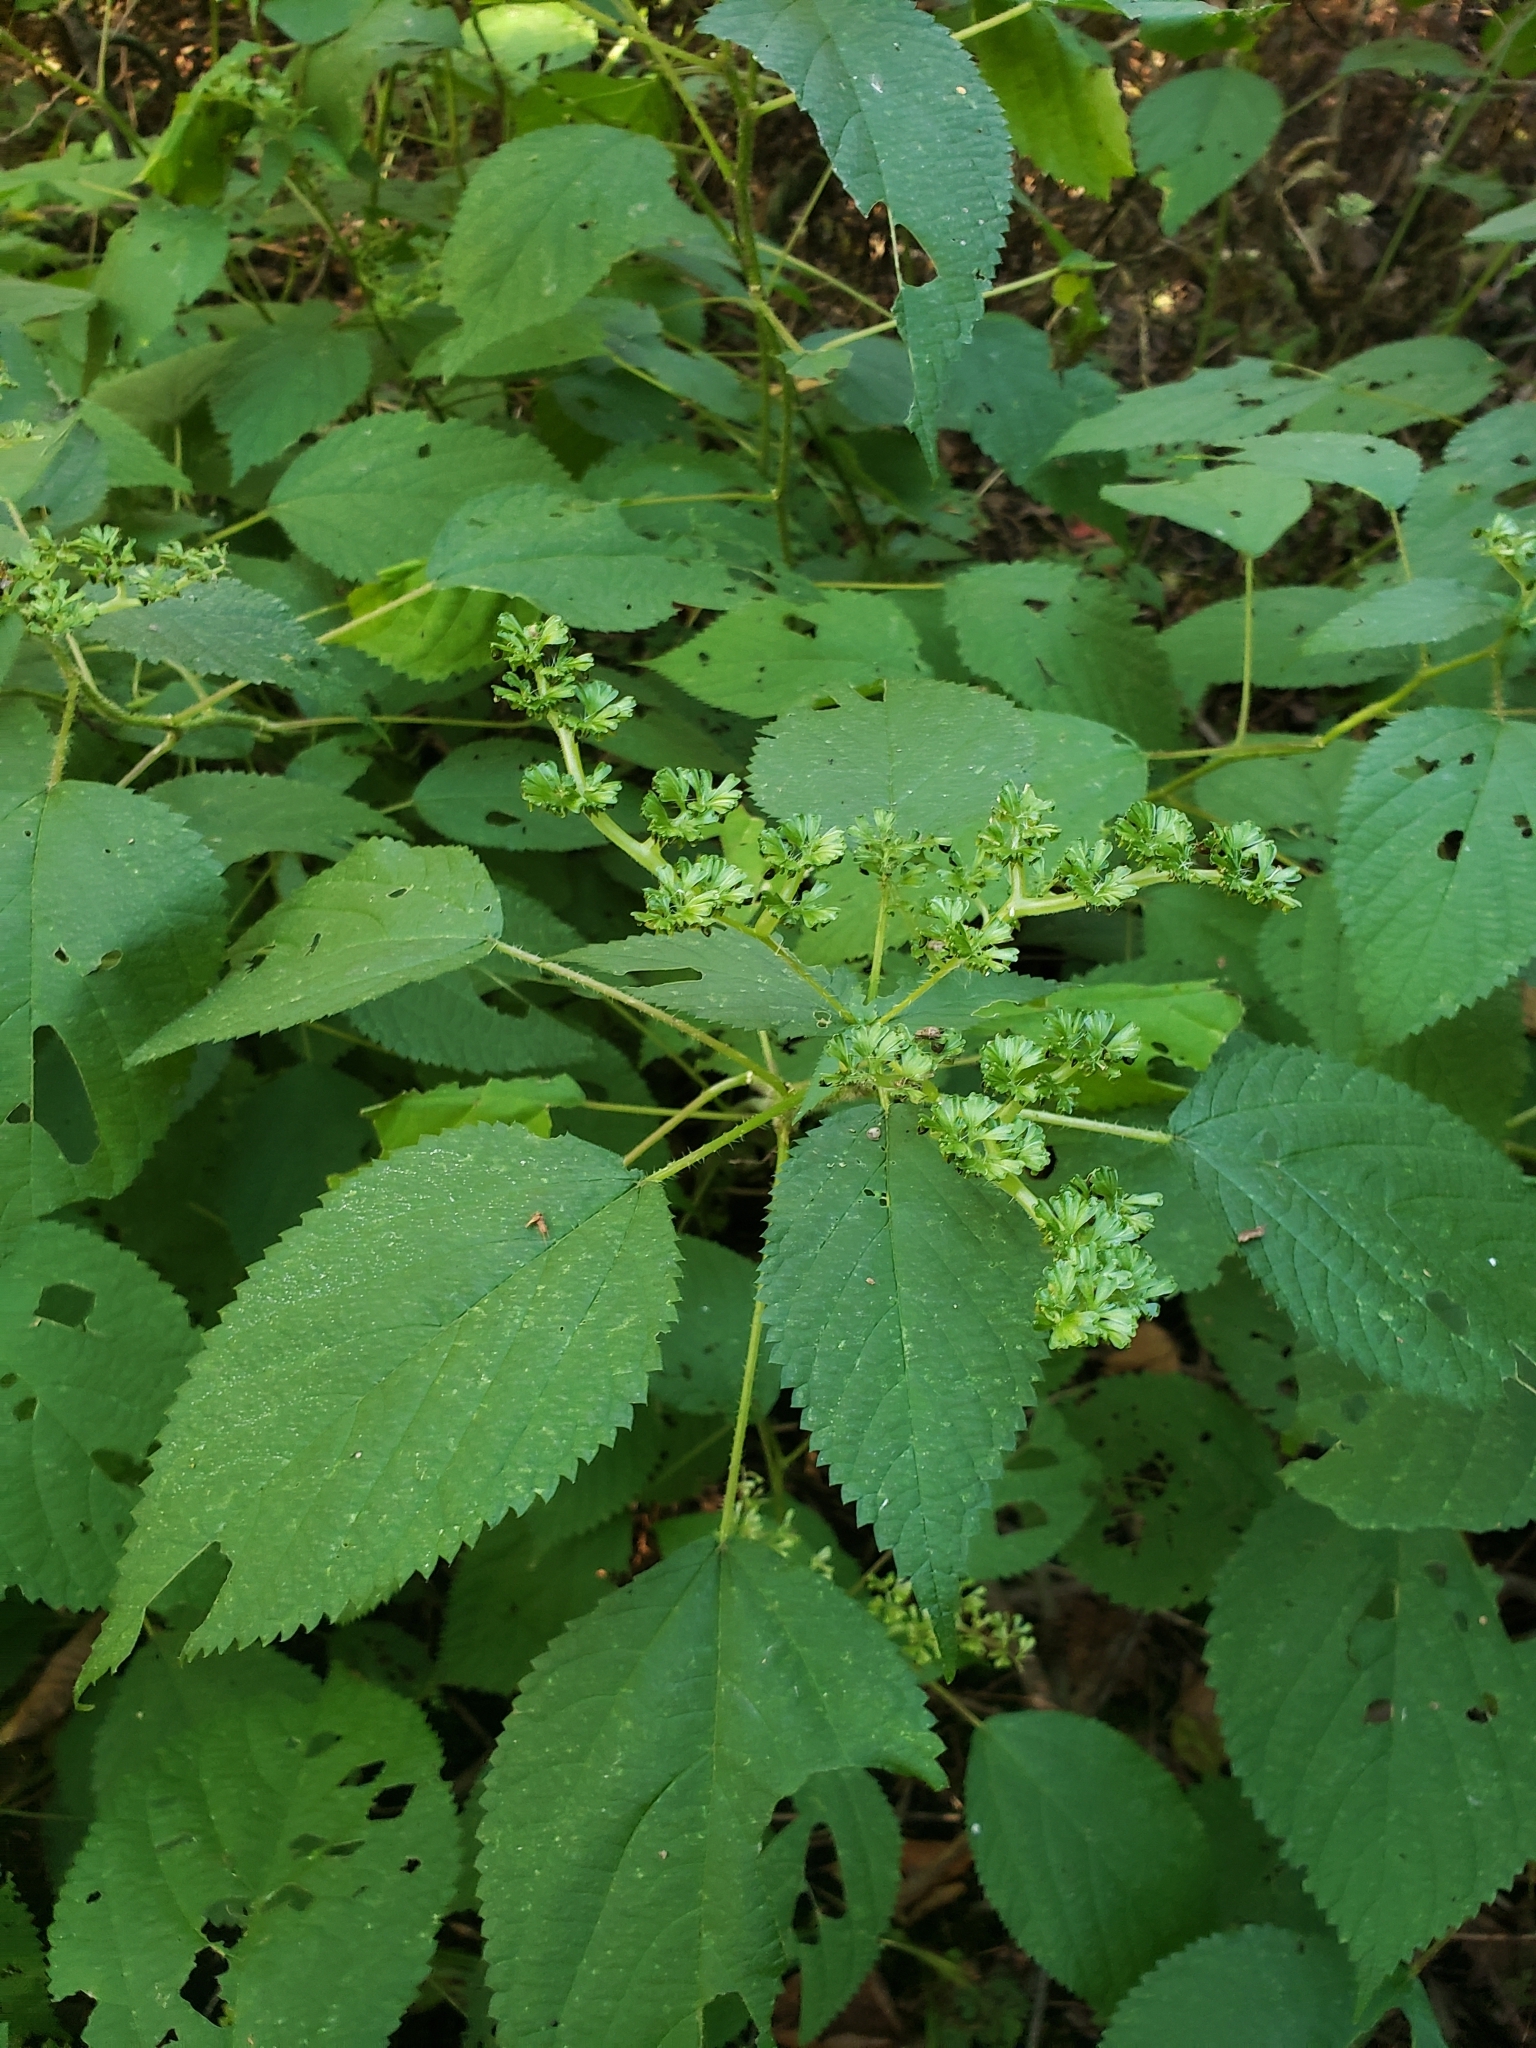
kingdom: Plantae
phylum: Tracheophyta
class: Magnoliopsida
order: Rosales
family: Urticaceae
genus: Laportea
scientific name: Laportea canadensis
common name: Canada nettle
